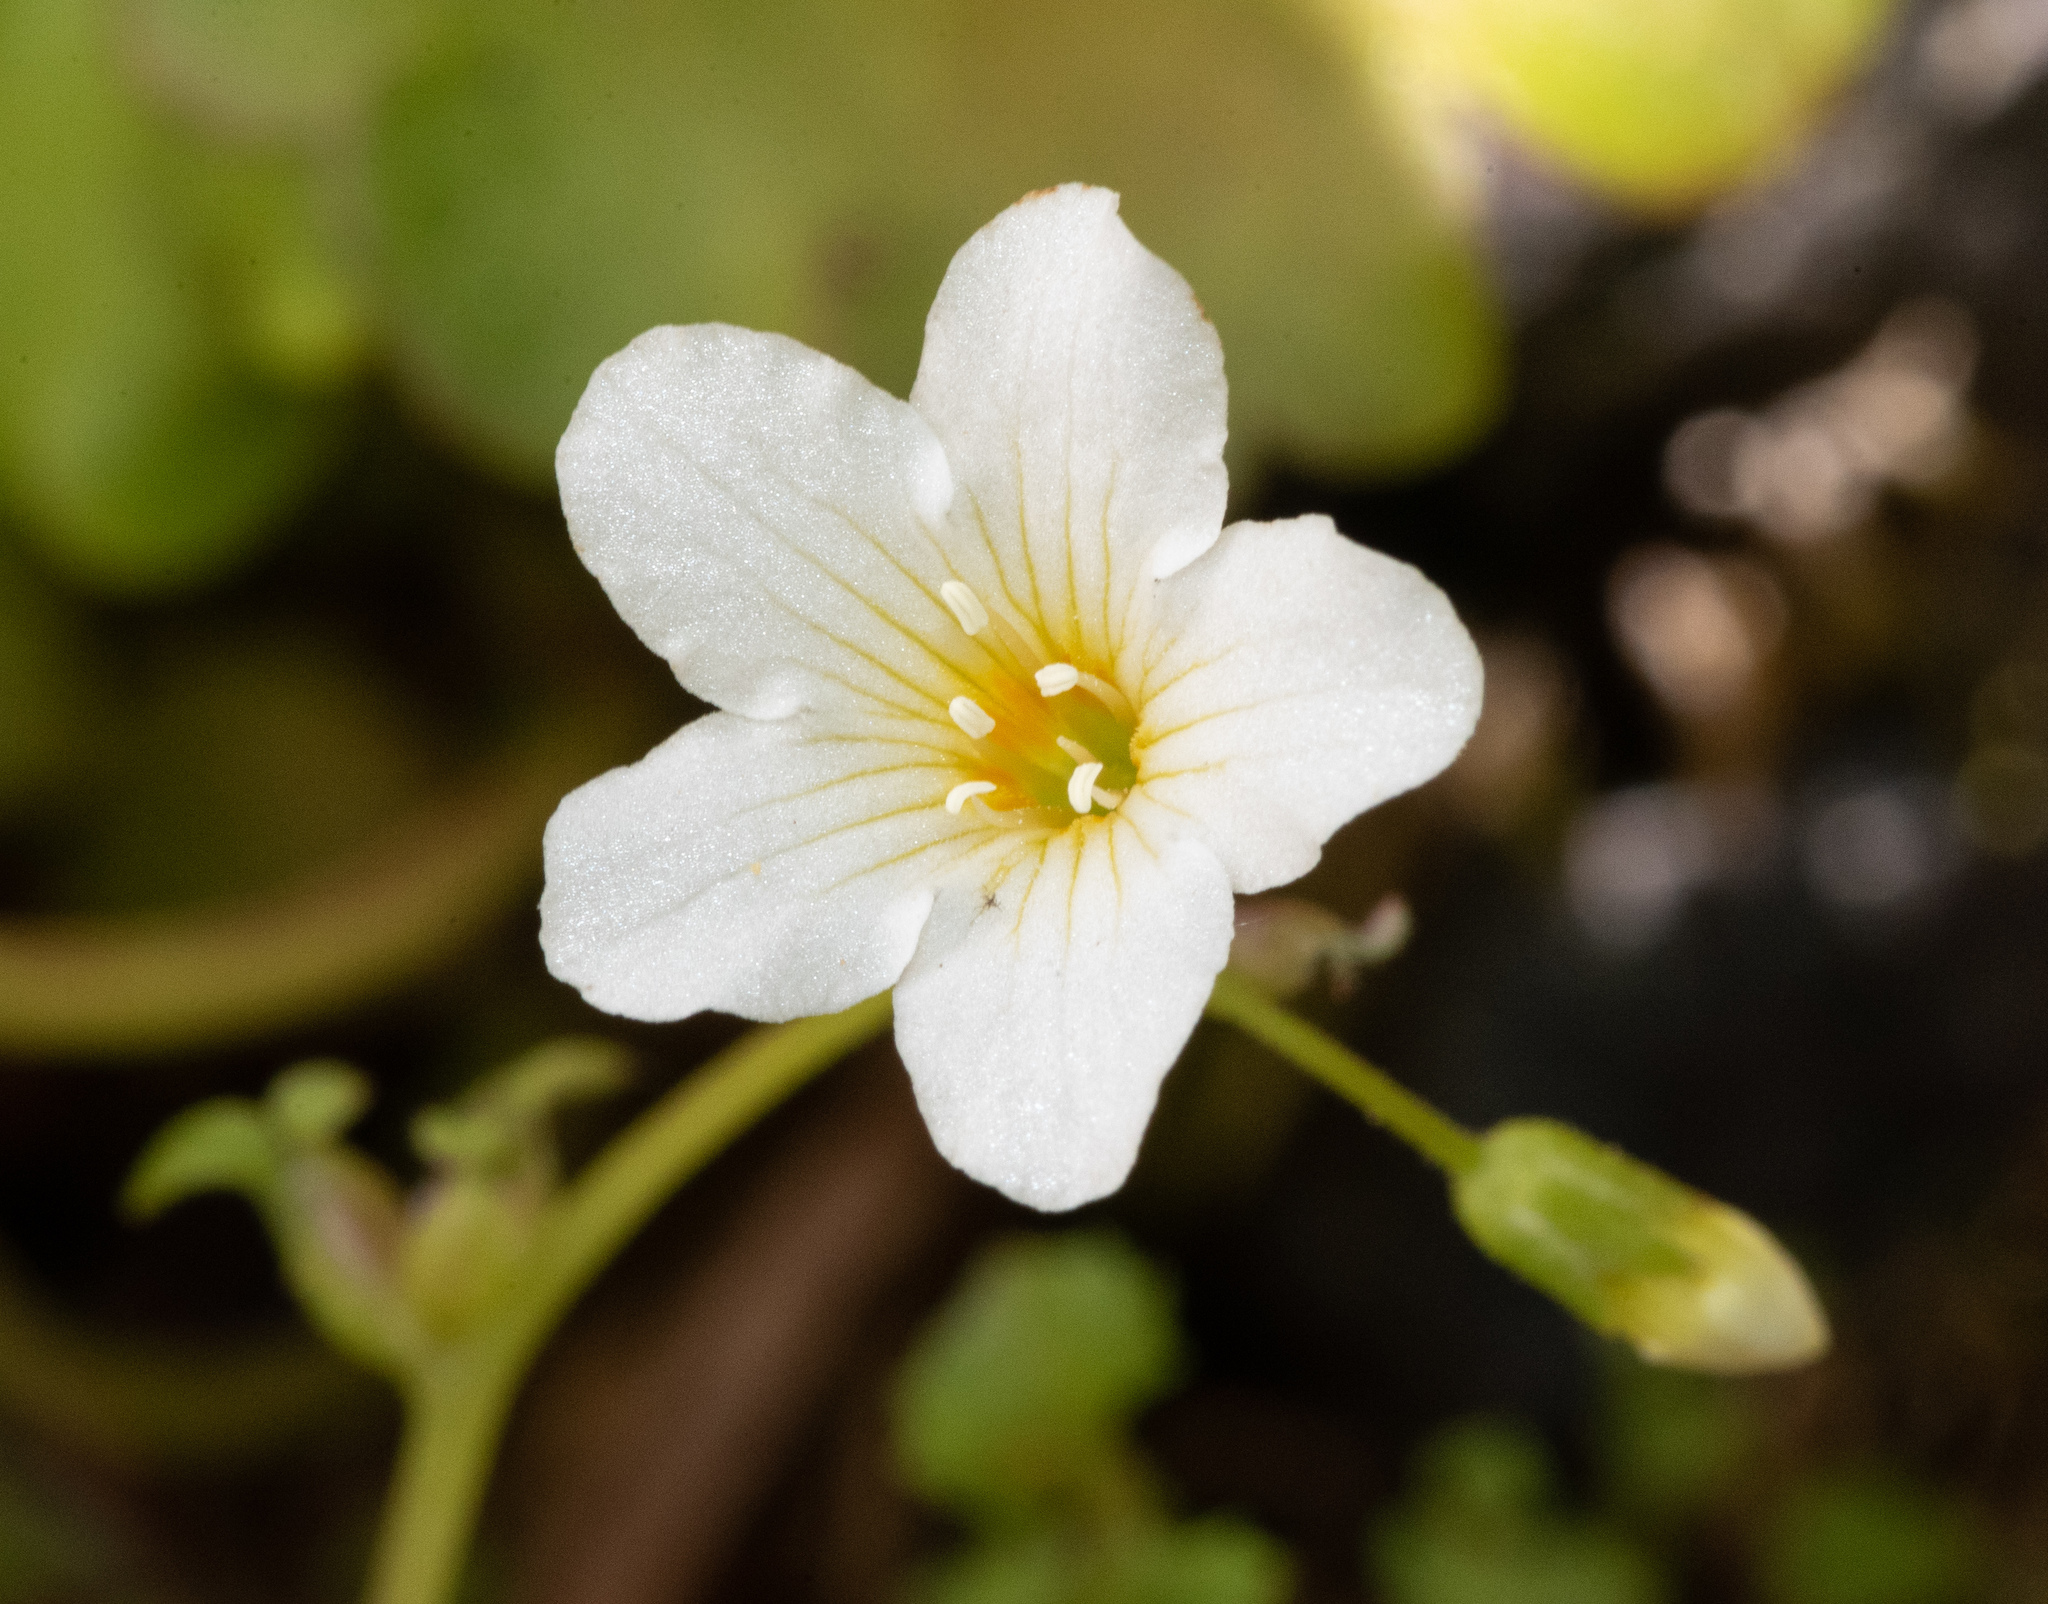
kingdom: Plantae
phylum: Tracheophyta
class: Magnoliopsida
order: Boraginales
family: Hydrophyllaceae
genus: Romanzoffia
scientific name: Romanzoffia californica
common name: California mistmaiden
